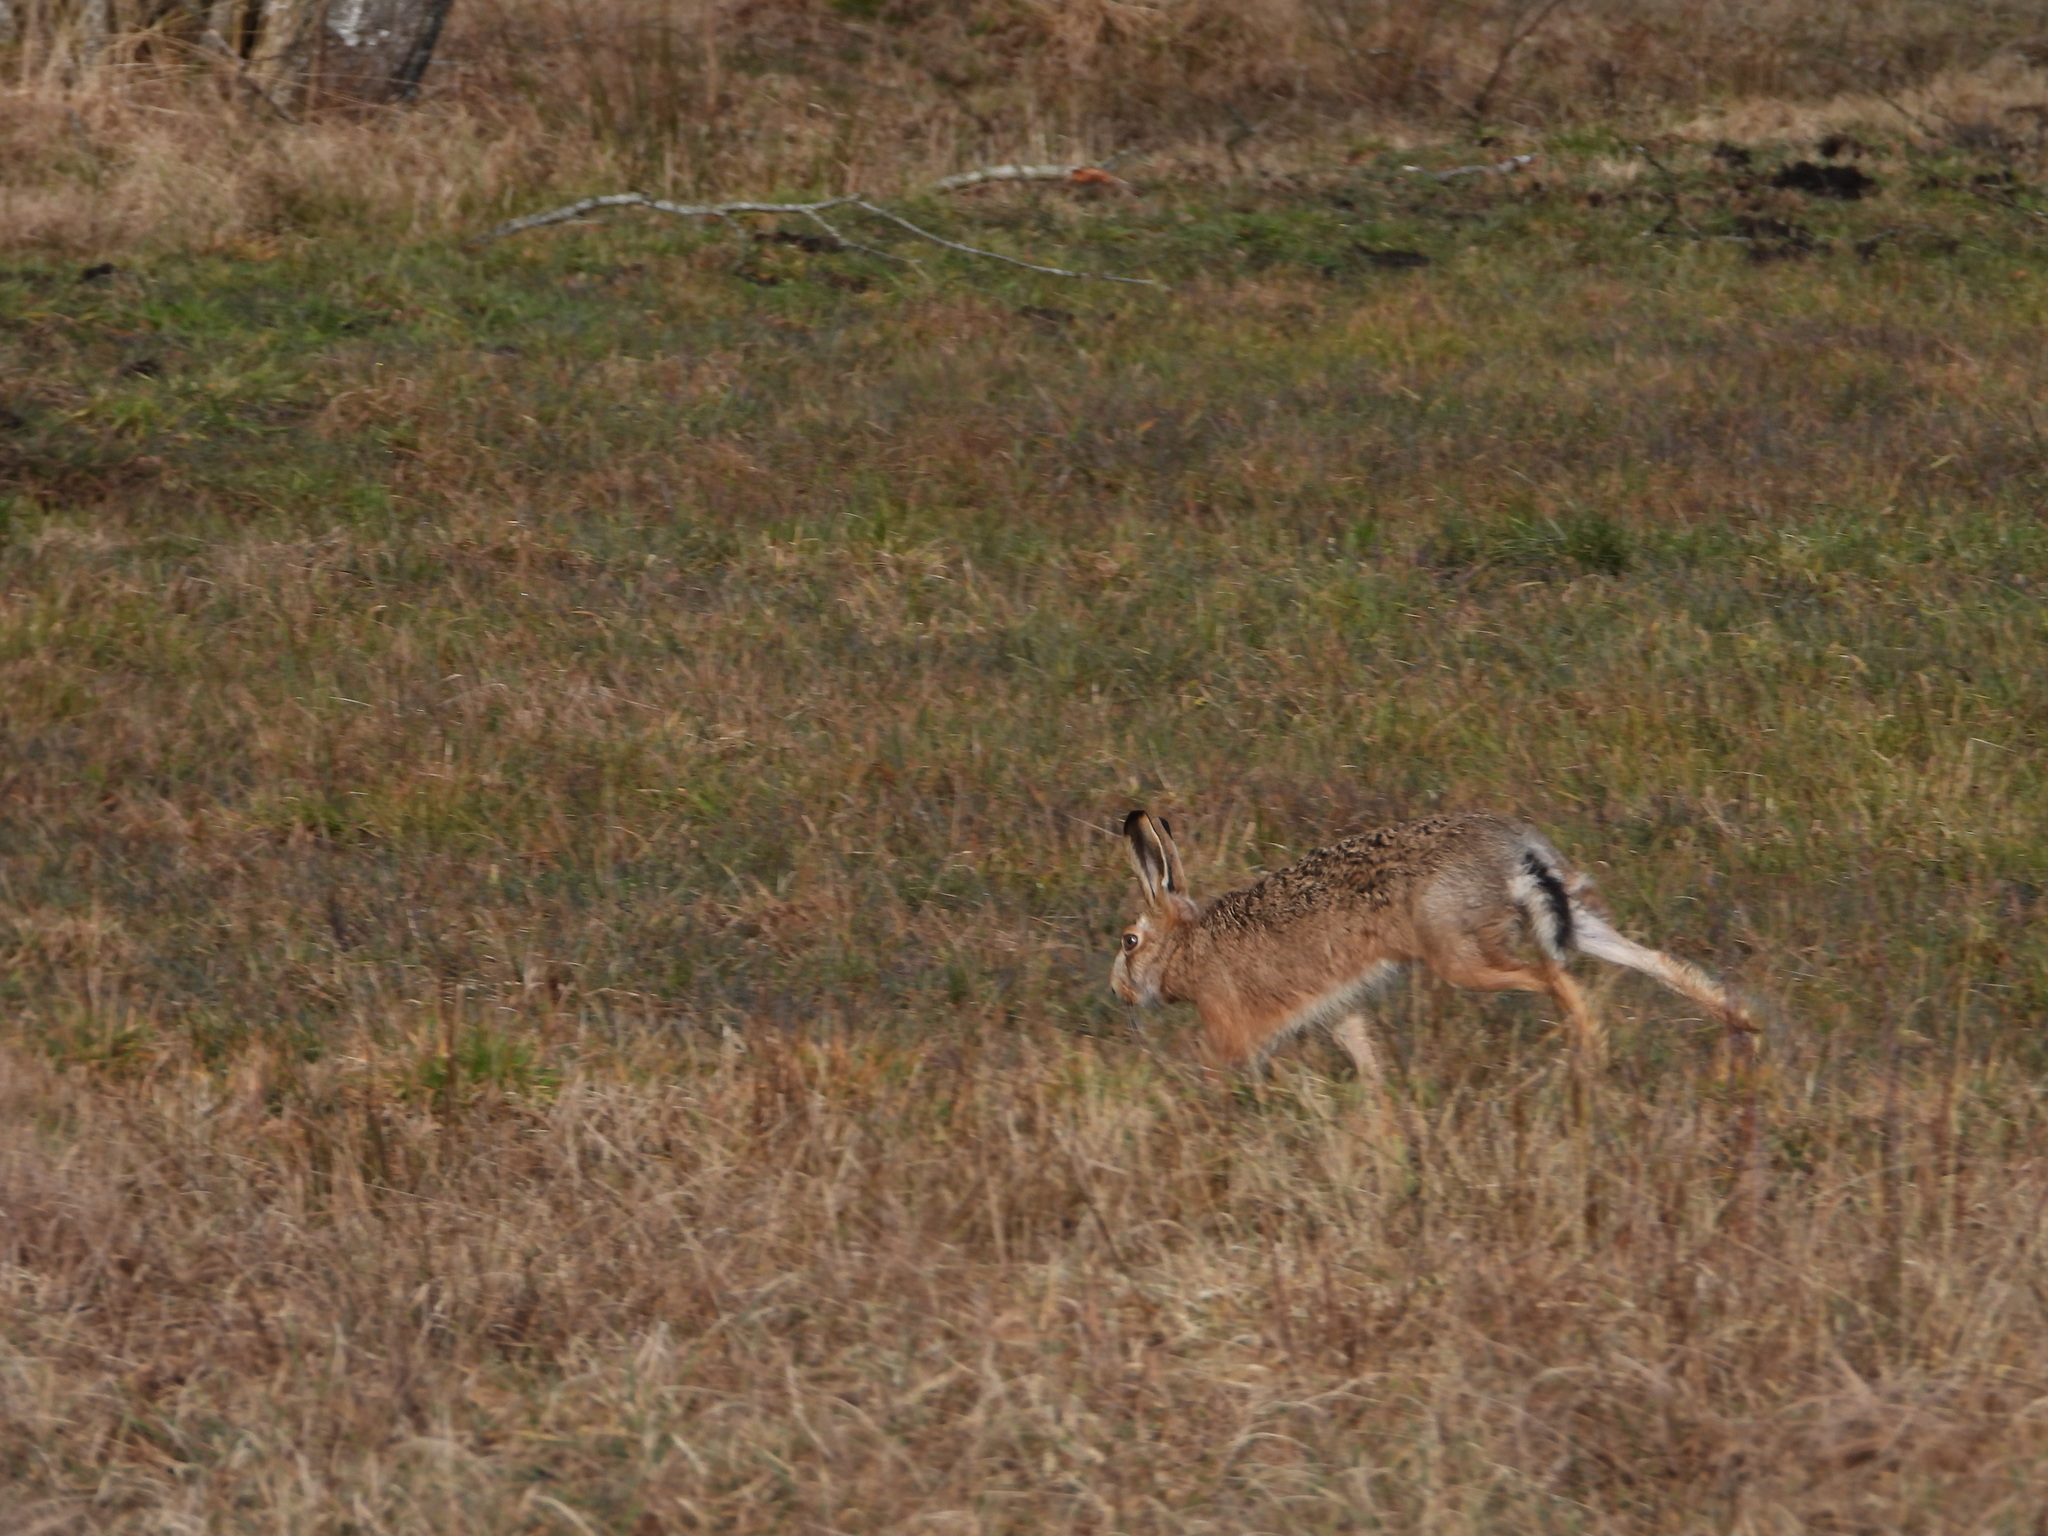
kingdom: Animalia
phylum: Chordata
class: Mammalia
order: Lagomorpha
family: Leporidae
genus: Lepus
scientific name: Lepus europaeus
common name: European hare
